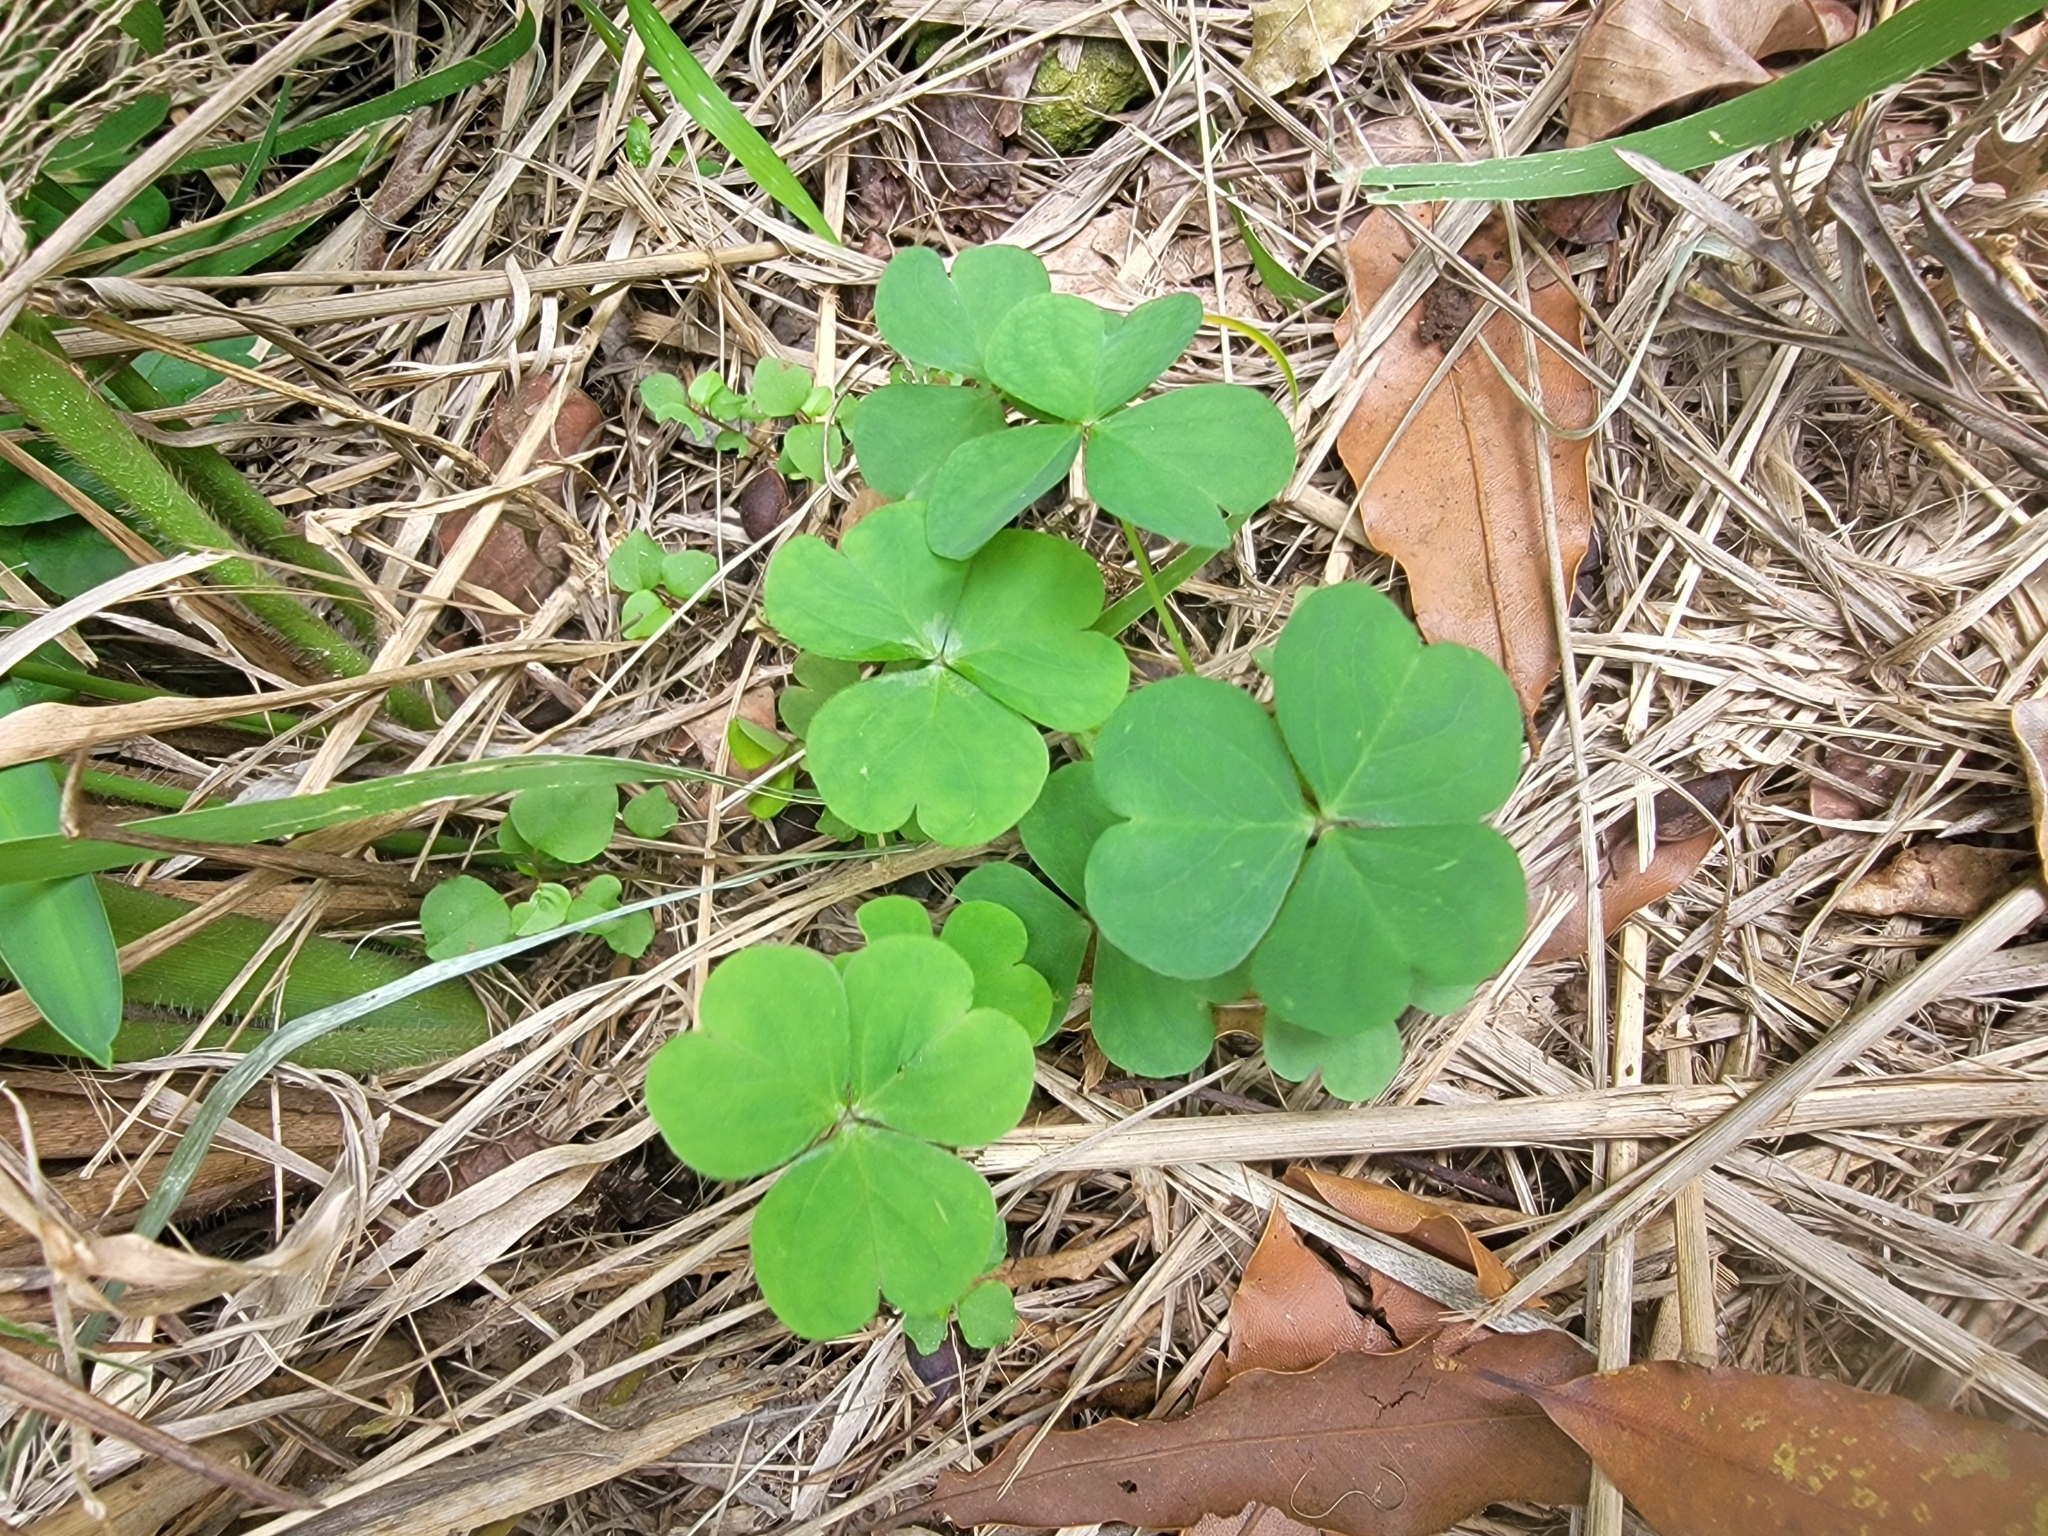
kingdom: Plantae
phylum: Tracheophyta
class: Magnoliopsida
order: Oxalidales
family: Oxalidaceae
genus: Oxalis
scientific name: Oxalis debilis
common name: Large-flowered pink-sorrel
